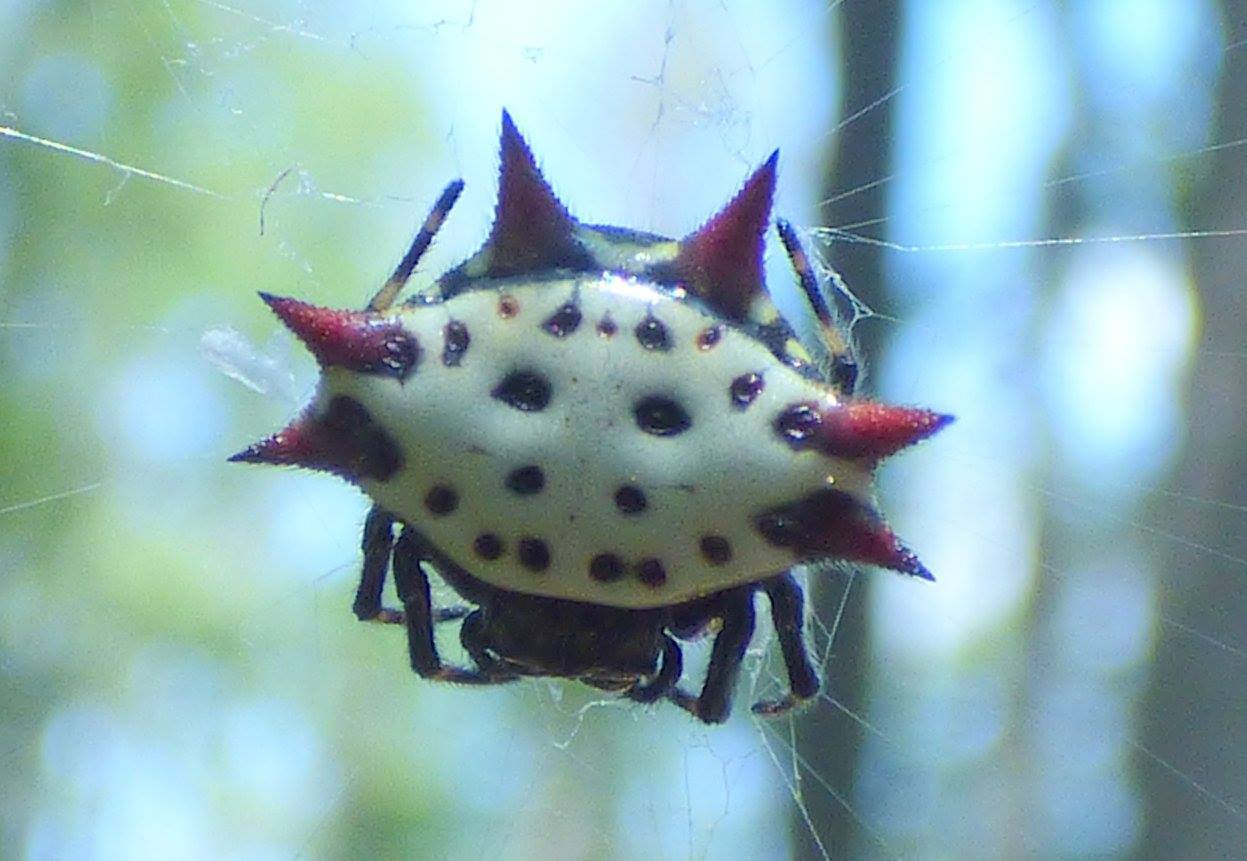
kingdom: Animalia
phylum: Arthropoda
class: Arachnida
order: Araneae
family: Araneidae
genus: Gasteracantha
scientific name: Gasteracantha cancriformis
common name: Orb weavers
